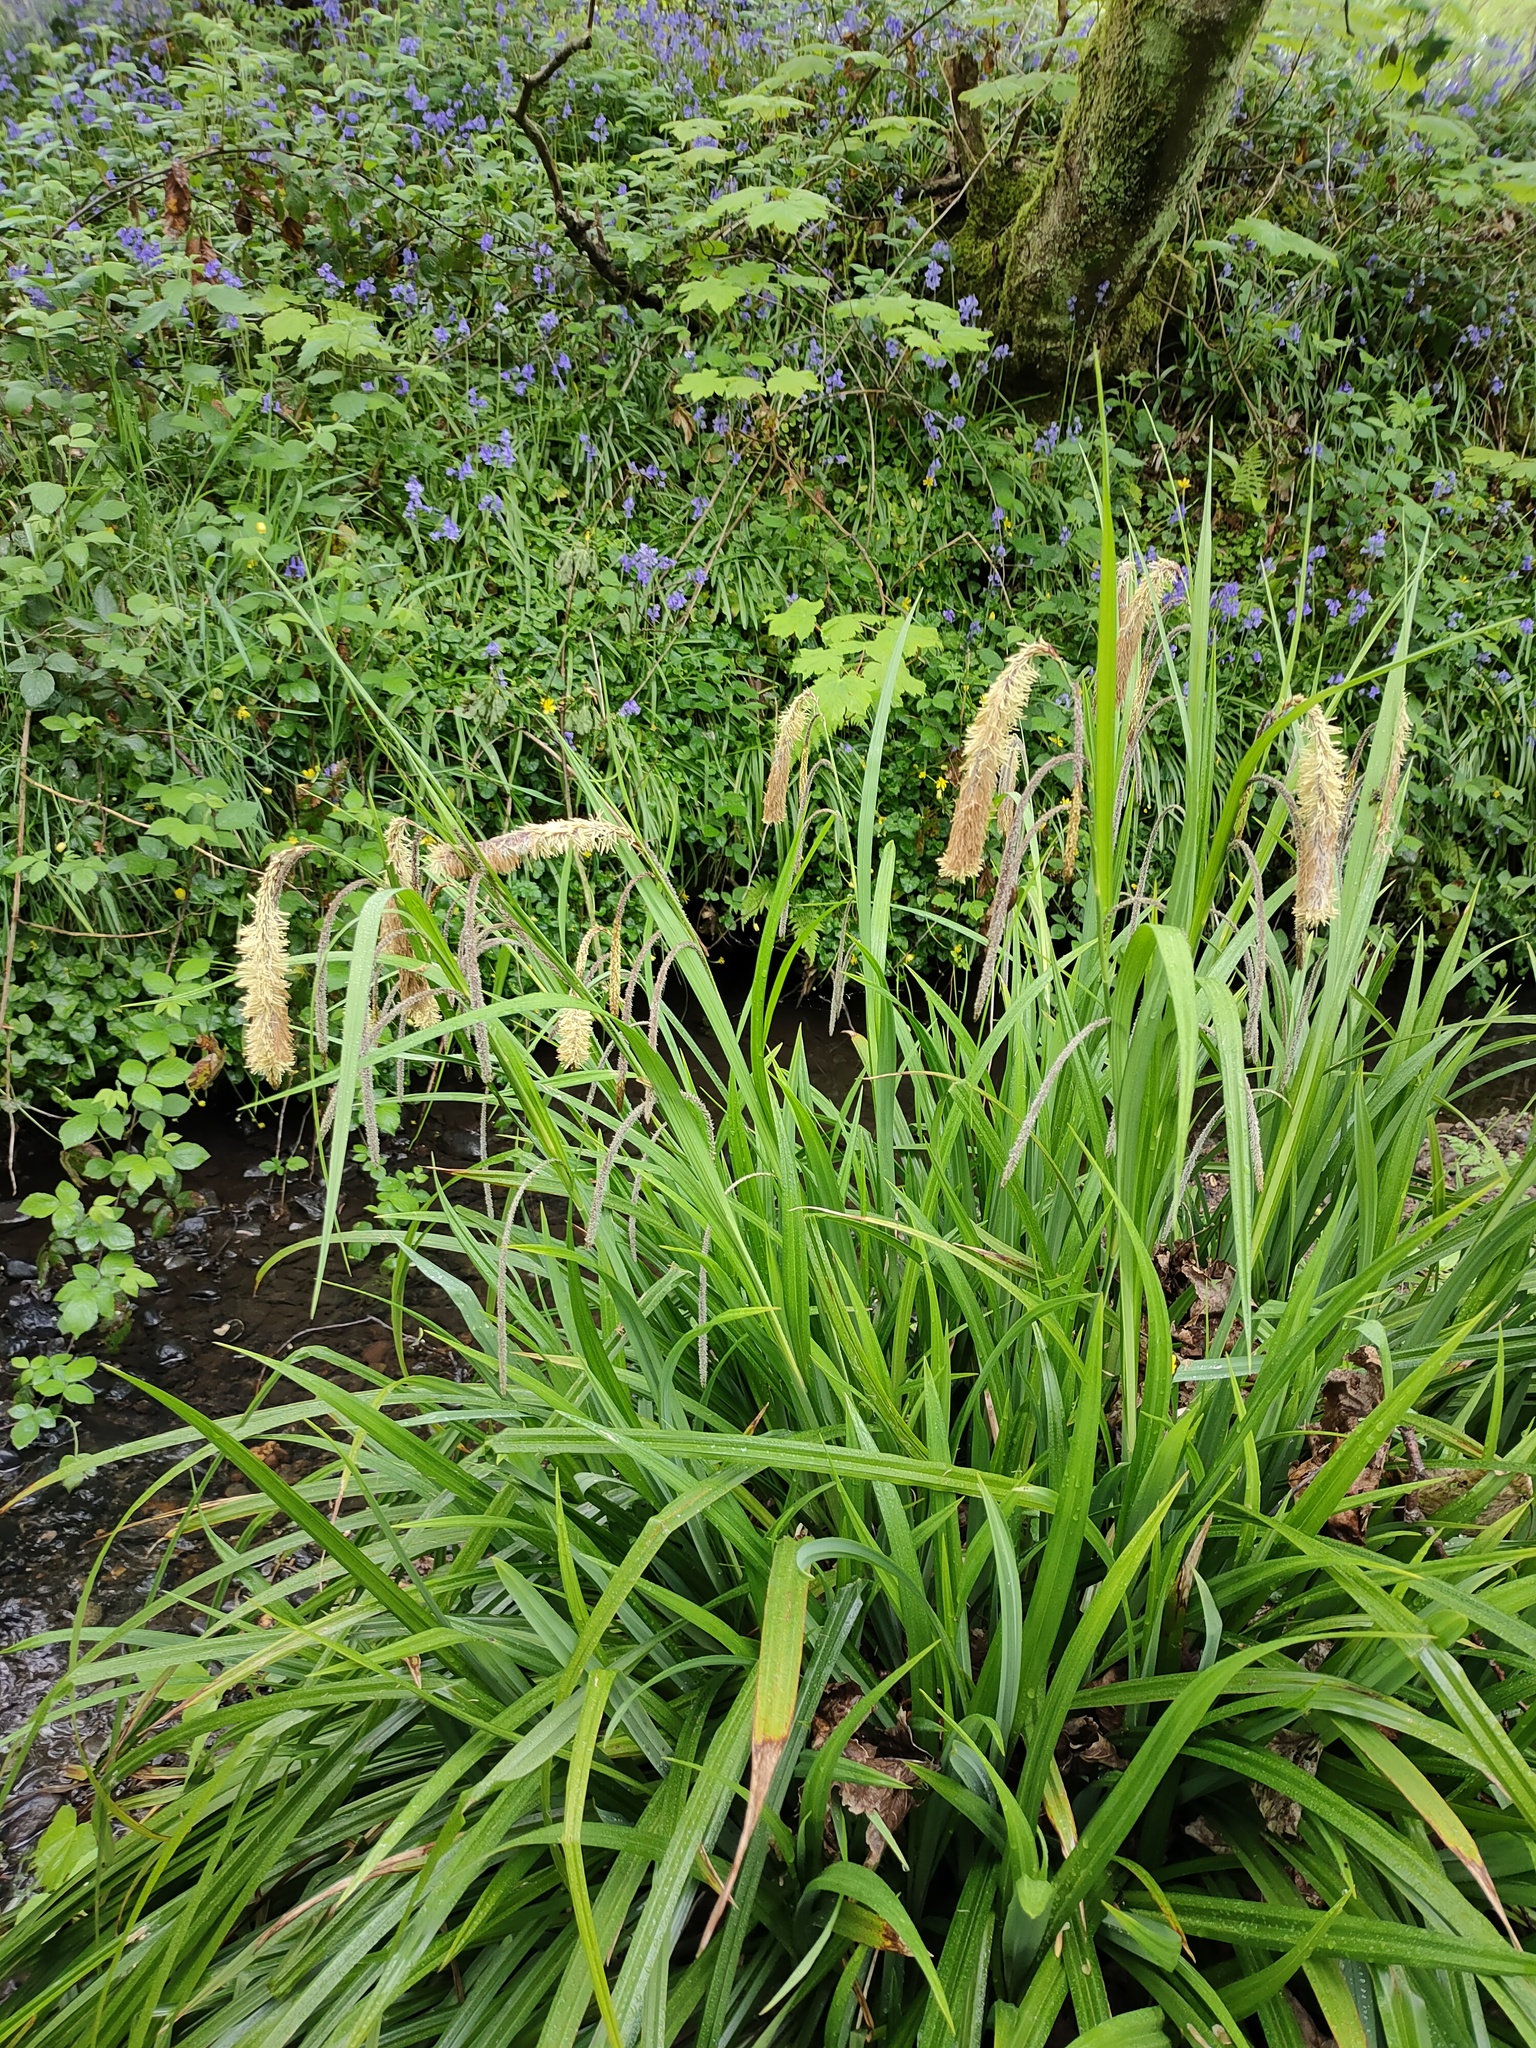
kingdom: Plantae
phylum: Tracheophyta
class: Liliopsida
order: Poales
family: Cyperaceae
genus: Carex
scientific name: Carex pendula
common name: Pendulous sedge
